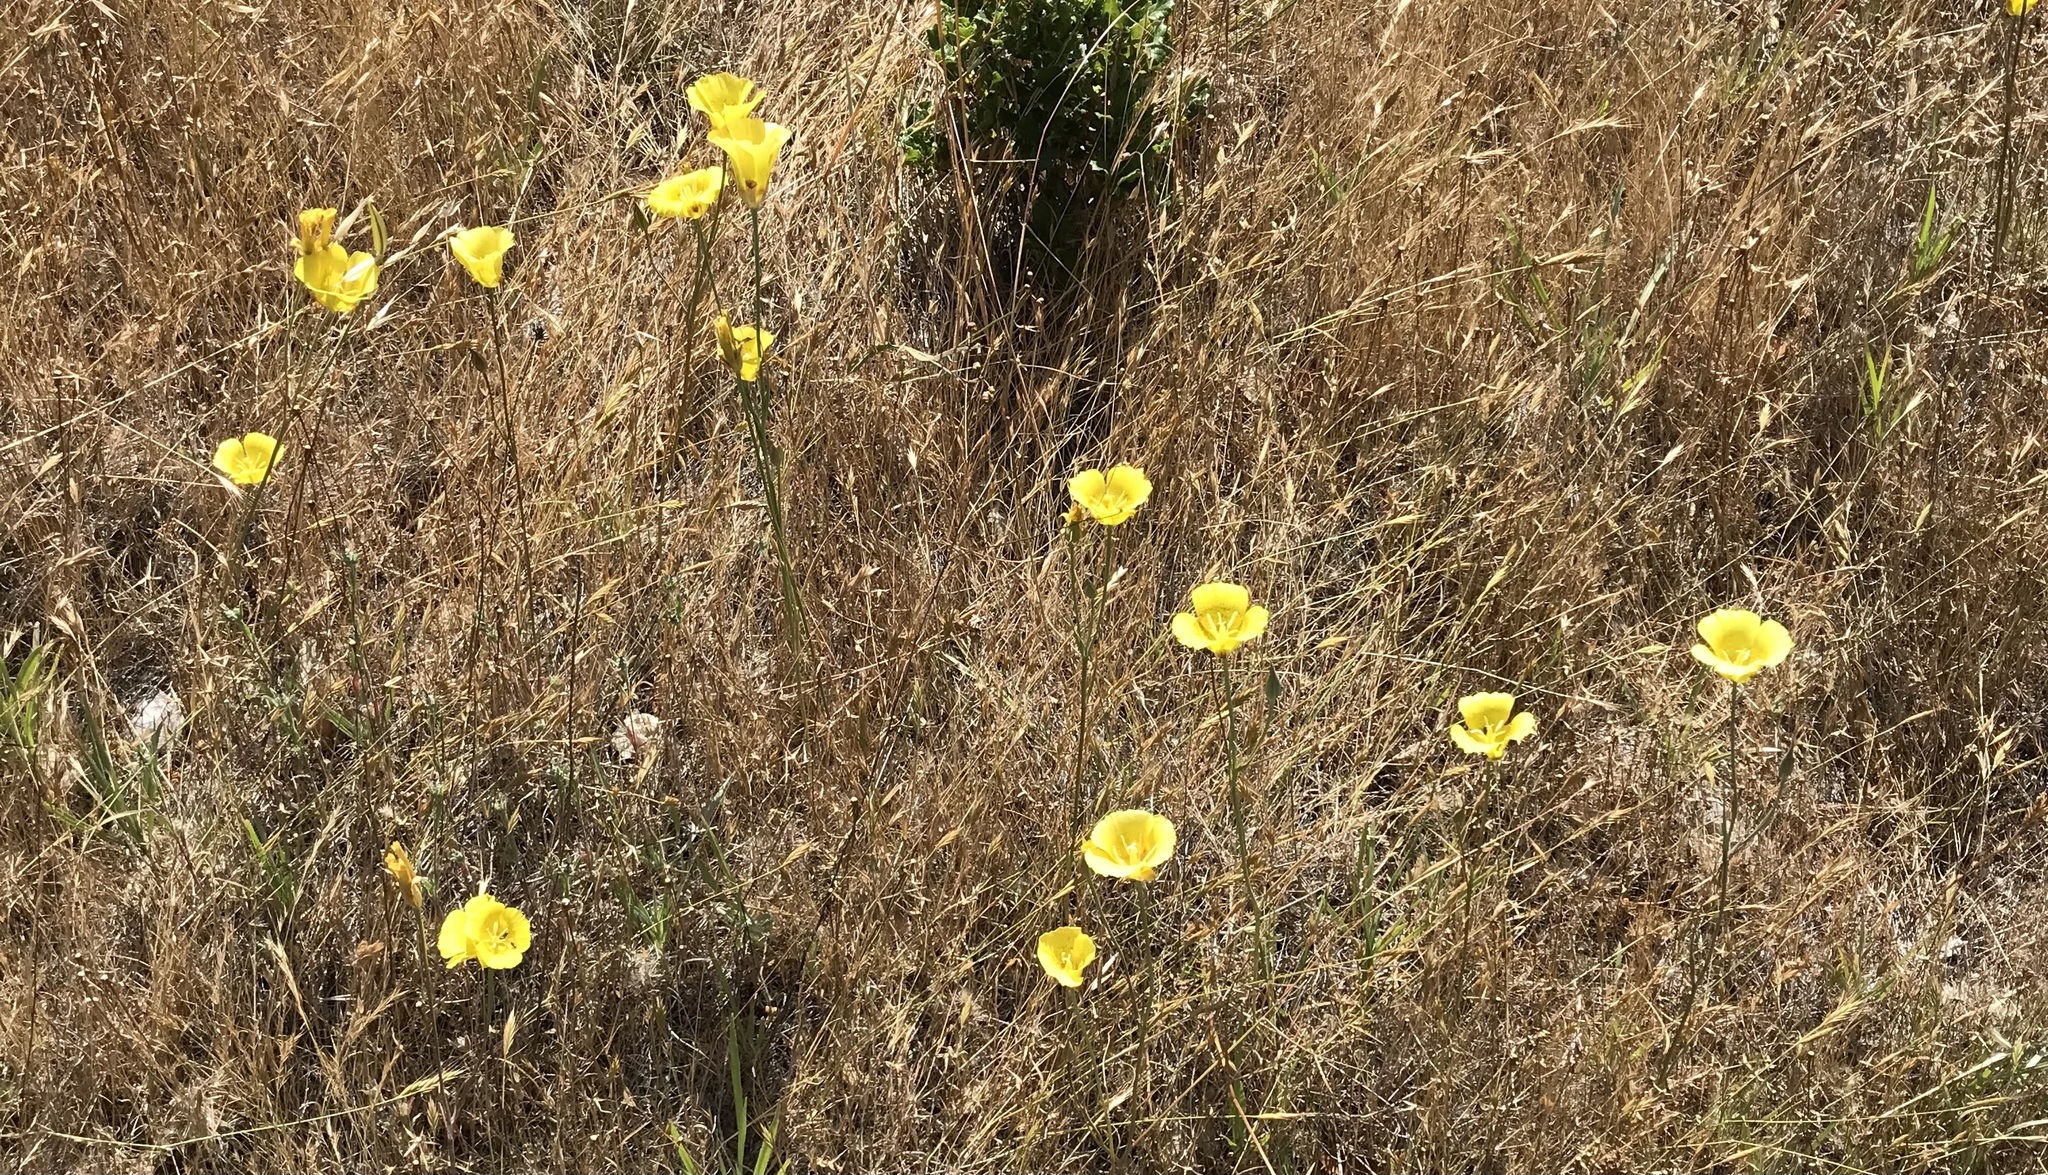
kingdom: Plantae
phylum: Tracheophyta
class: Liliopsida
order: Liliales
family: Liliaceae
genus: Calochortus
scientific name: Calochortus luteus
